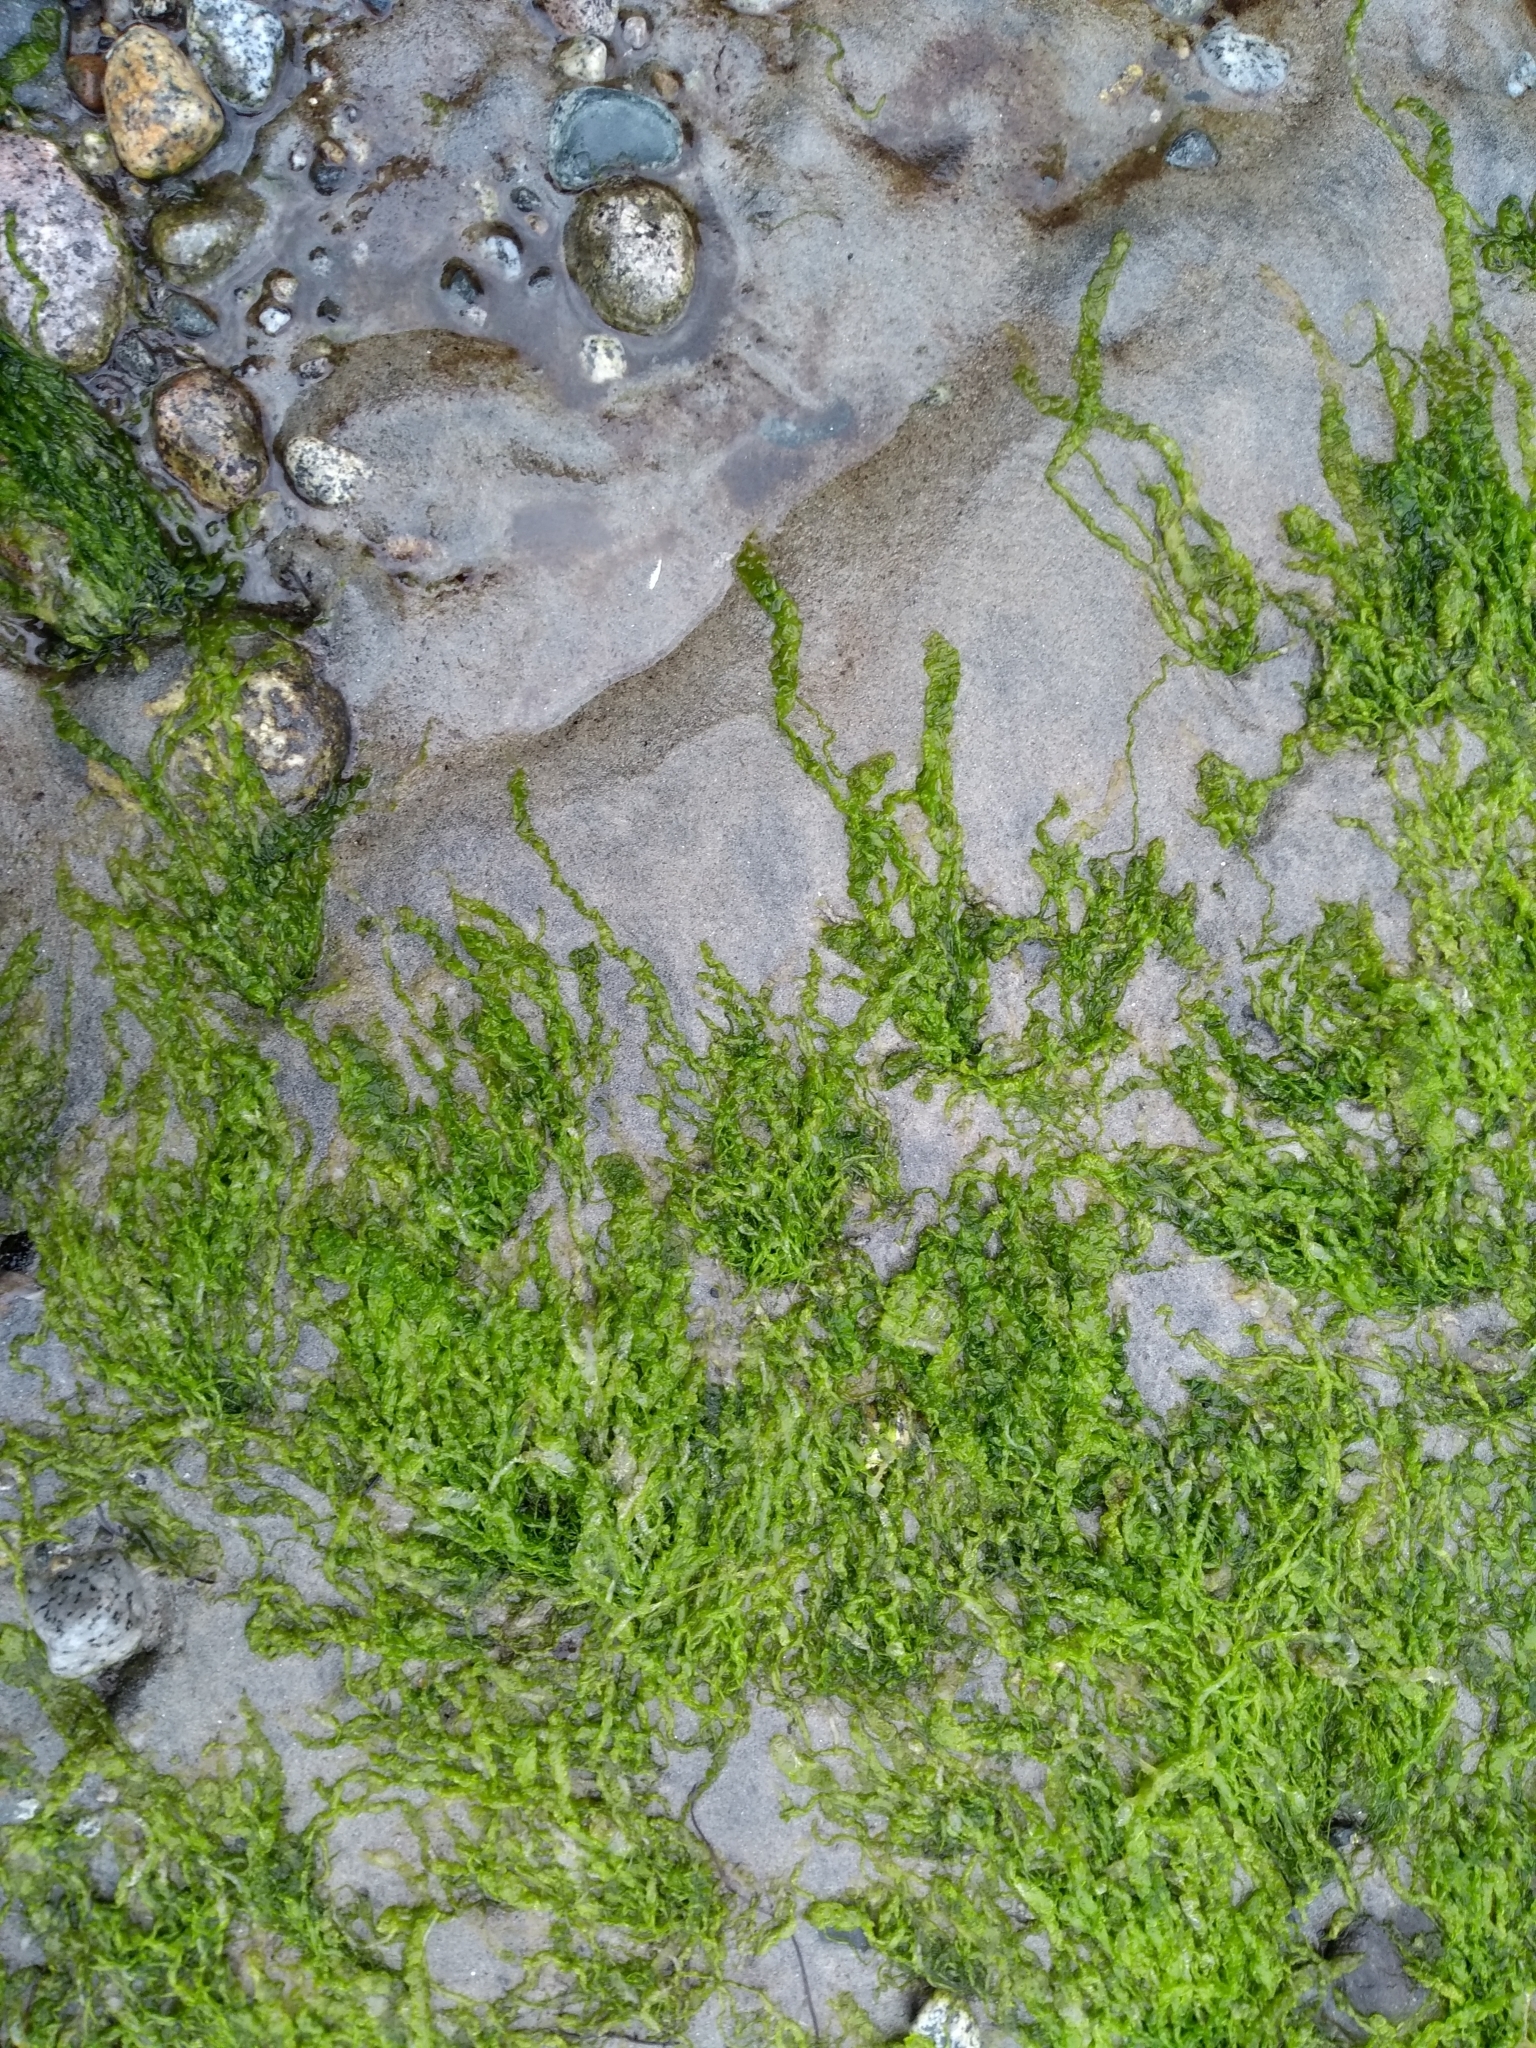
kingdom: Plantae
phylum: Chlorophyta
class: Ulvophyceae
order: Ulvales
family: Ulvaceae
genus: Ulva
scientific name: Ulva intestinalis
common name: Gut weed
